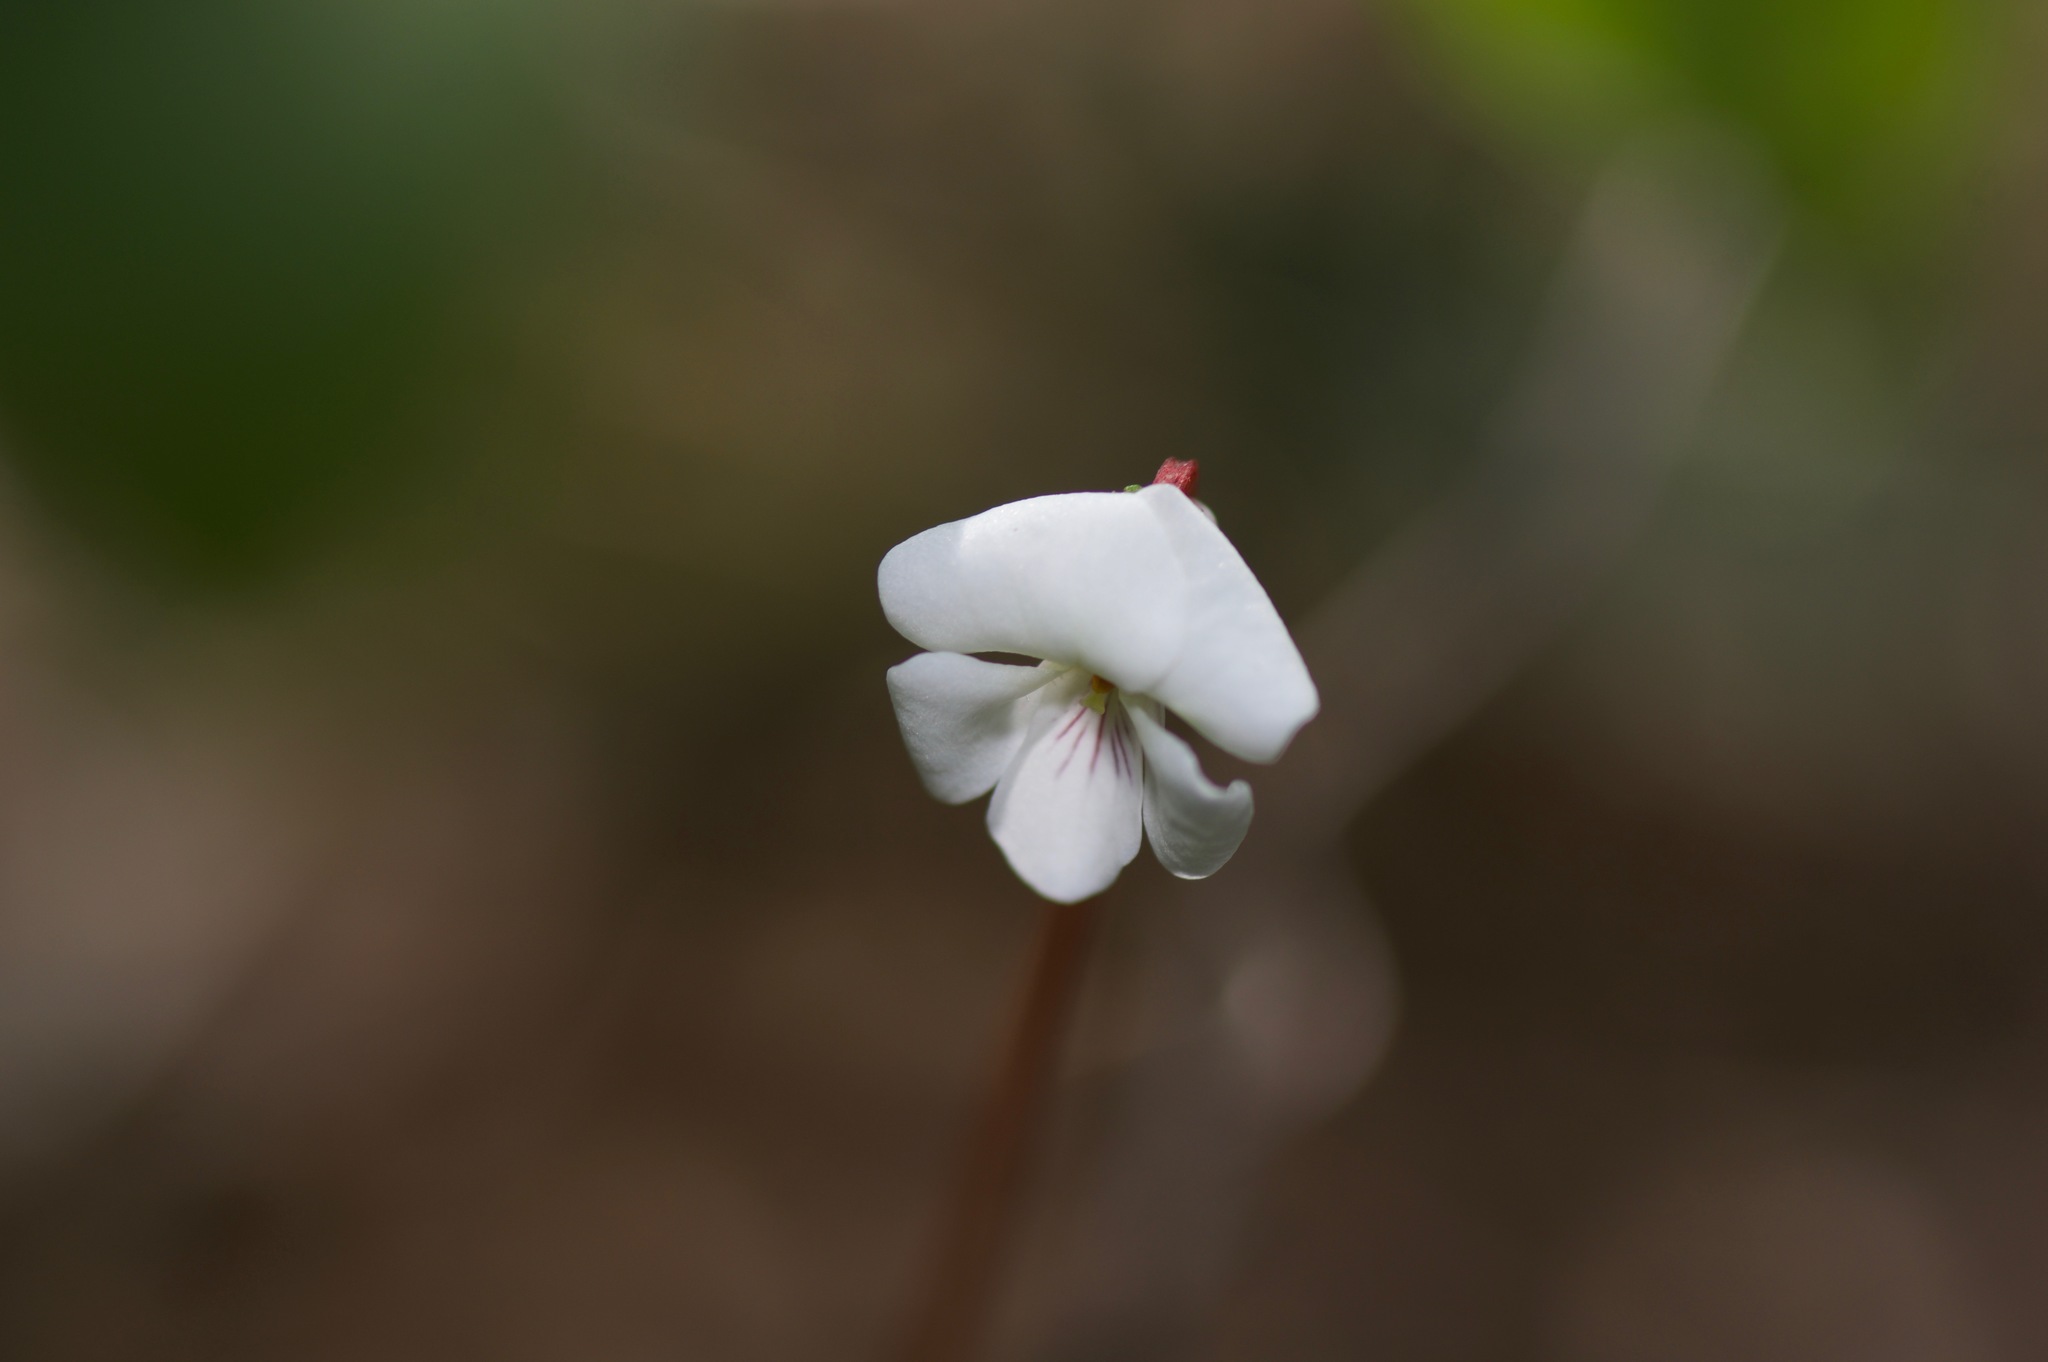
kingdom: Plantae
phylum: Tracheophyta
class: Magnoliopsida
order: Malpighiales
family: Violaceae
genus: Viola
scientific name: Viola primulifolia
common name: Primrose-leaf violet
